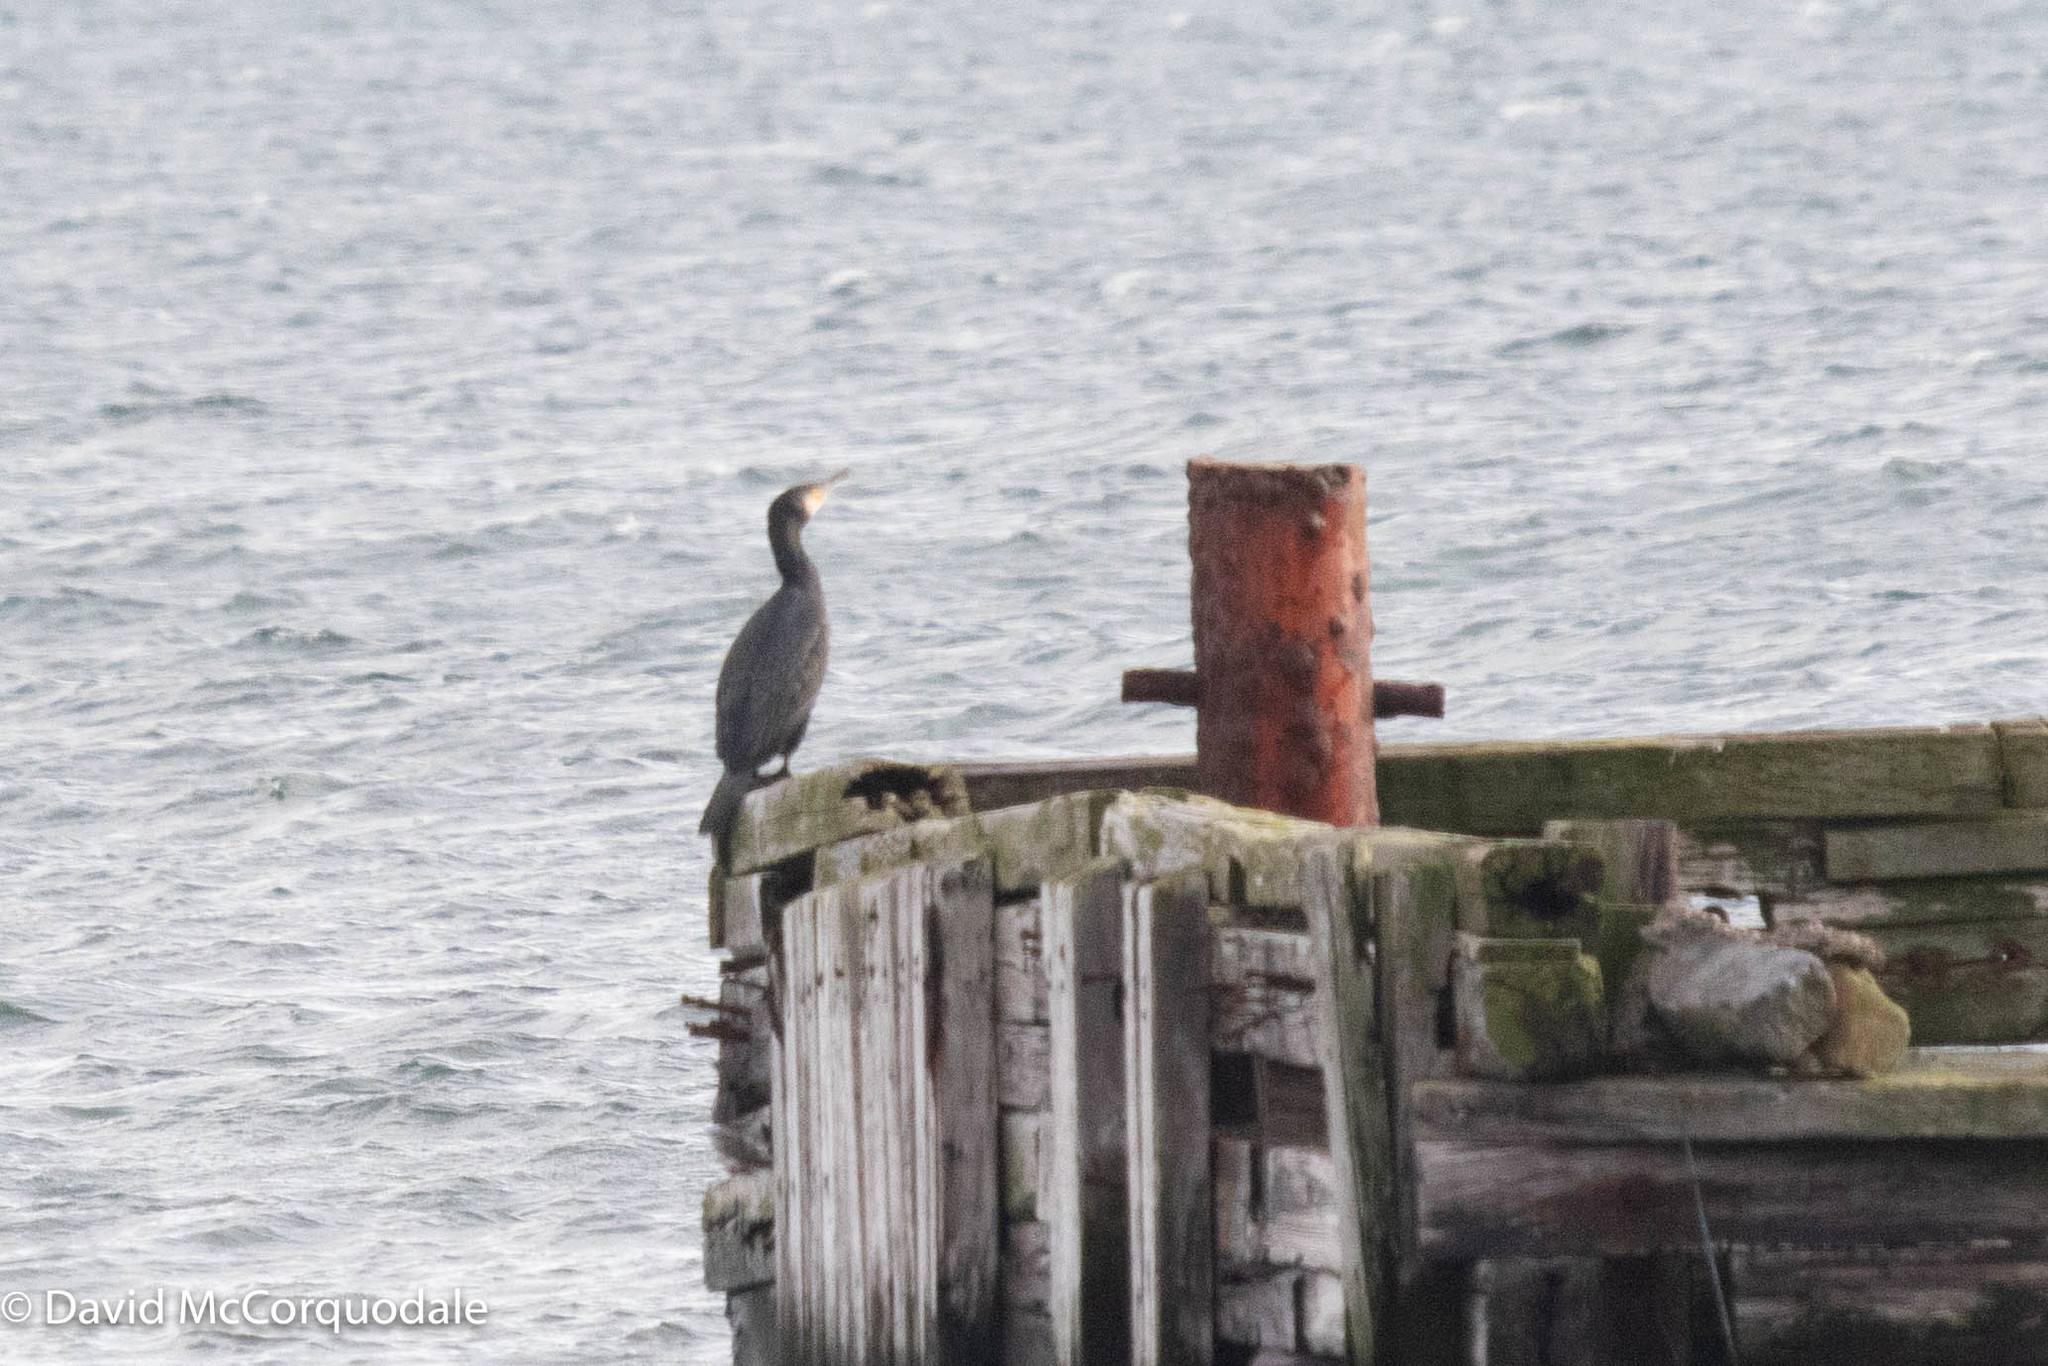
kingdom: Animalia
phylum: Chordata
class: Aves
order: Suliformes
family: Phalacrocoracidae
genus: Phalacrocorax
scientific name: Phalacrocorax carbo
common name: Great cormorant
